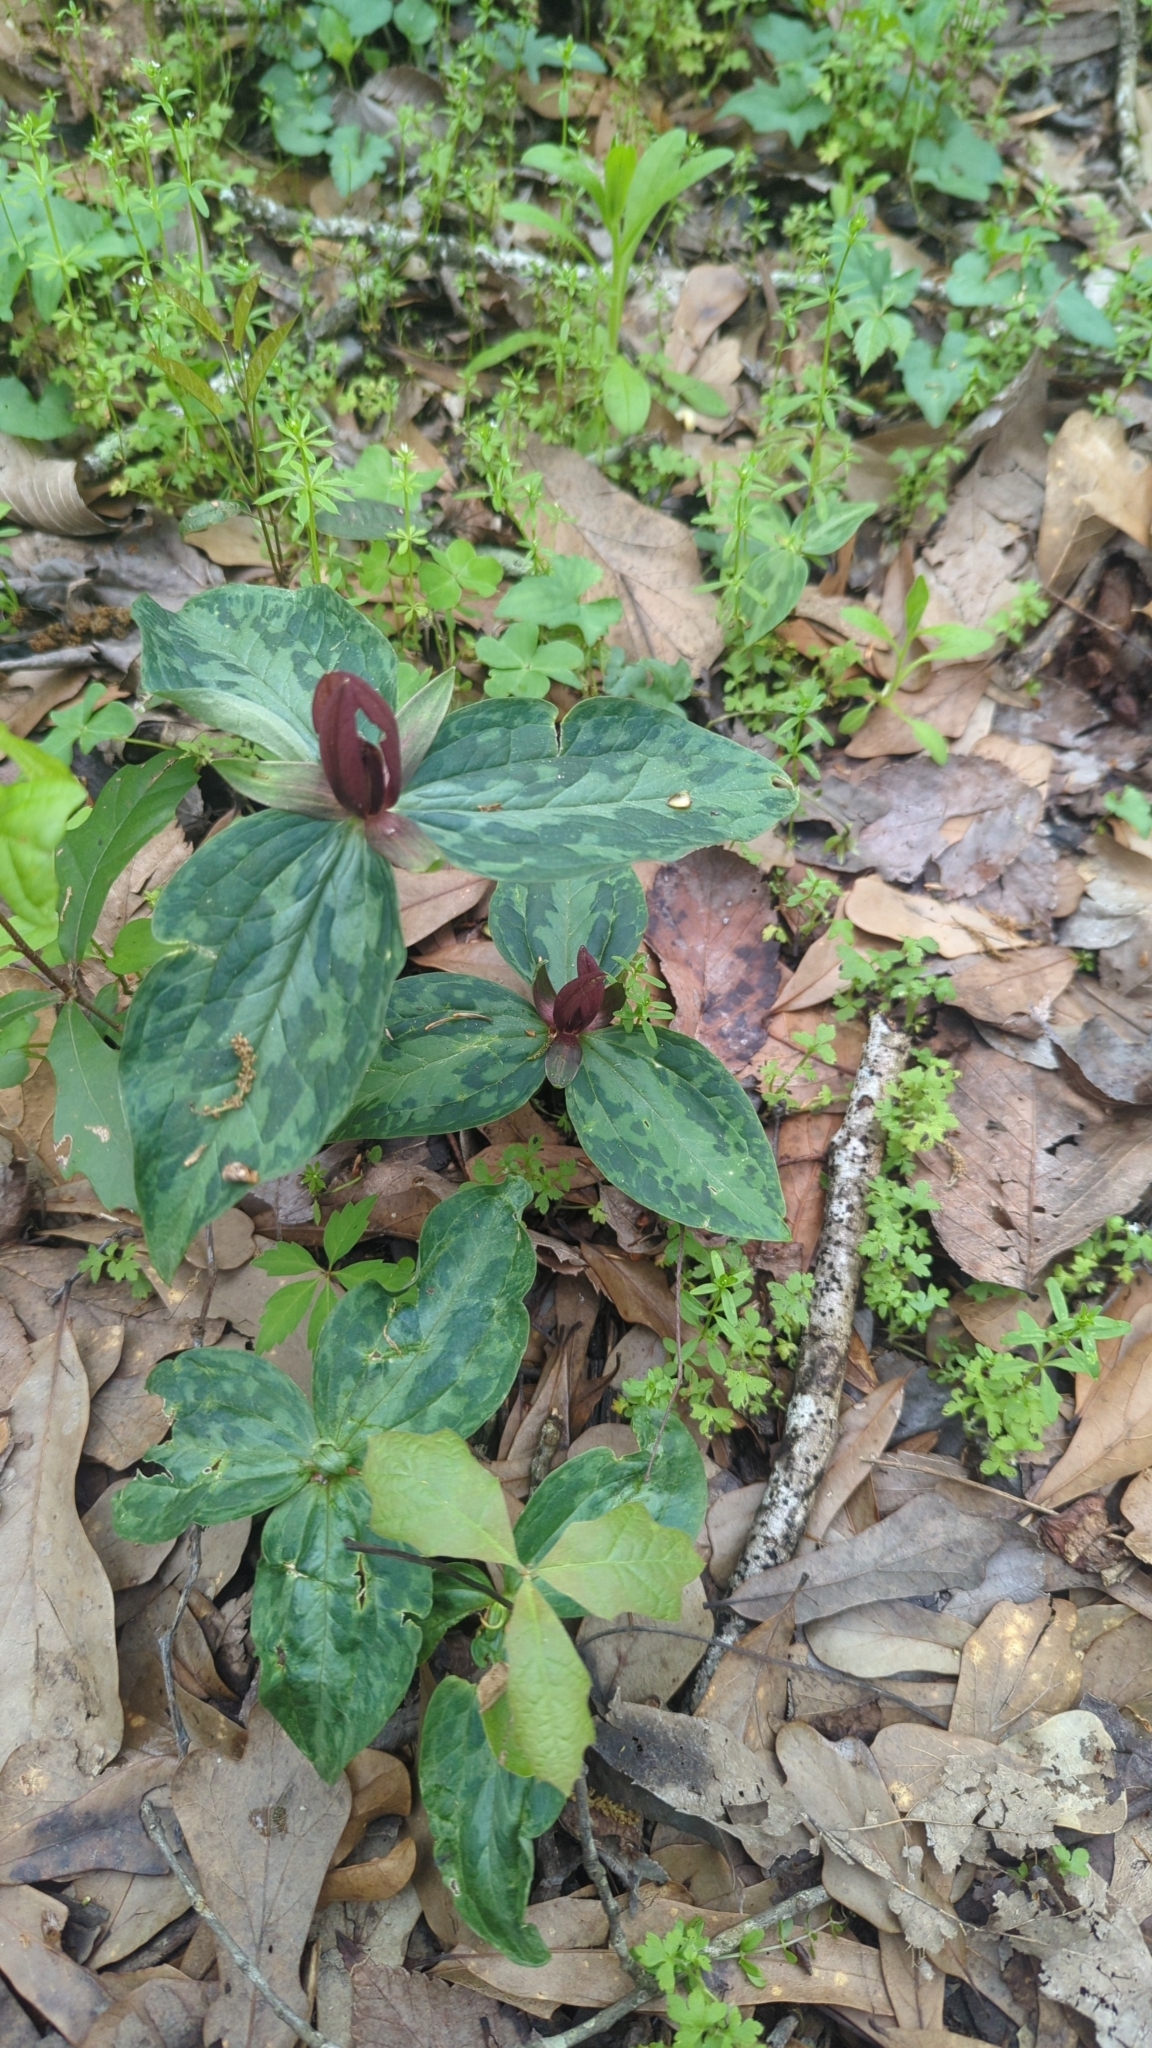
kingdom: Plantae
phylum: Tracheophyta
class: Liliopsida
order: Liliales
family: Melanthiaceae
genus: Trillium
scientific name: Trillium foetidissimum
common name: Mississippi river trillium
